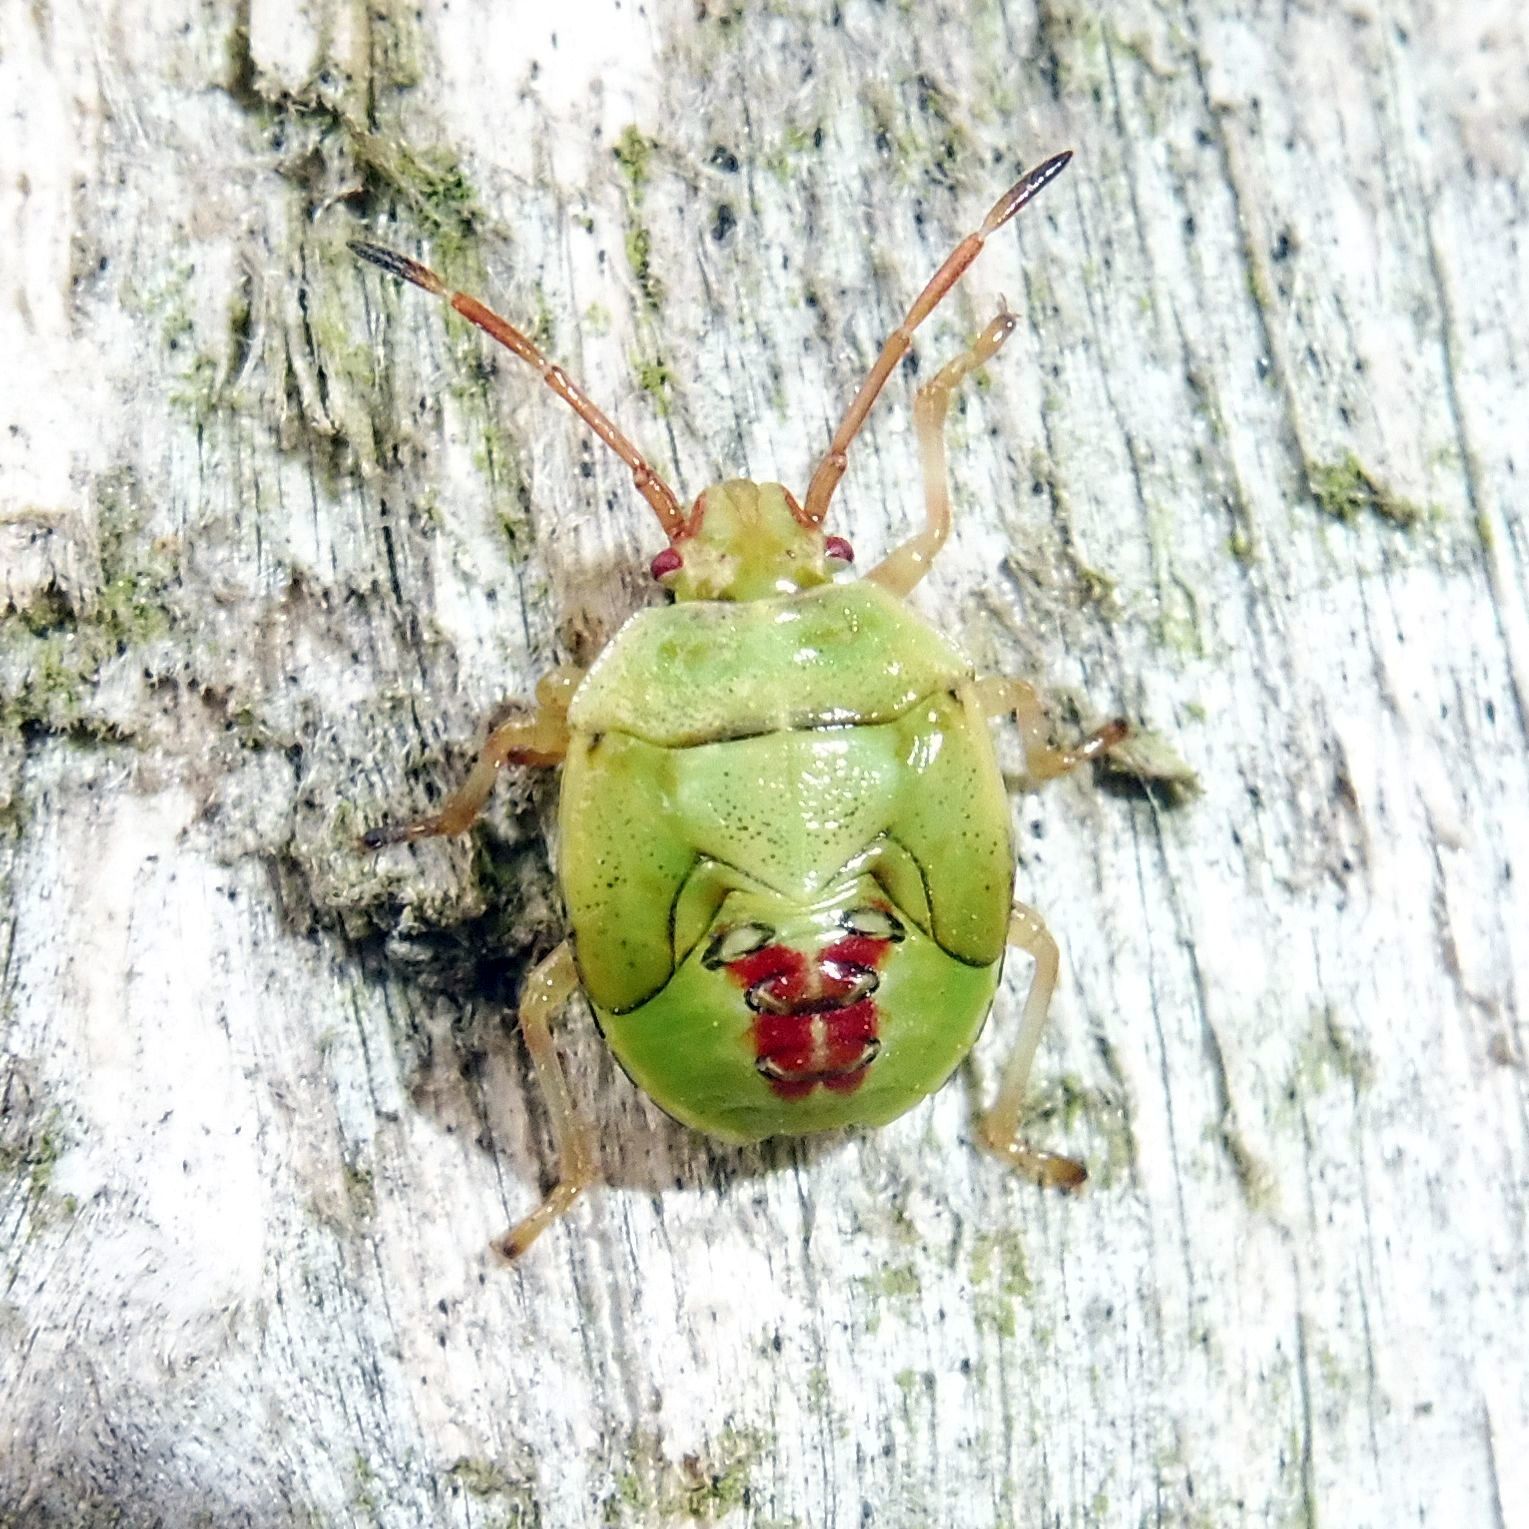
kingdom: Animalia
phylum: Arthropoda
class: Insecta
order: Hemiptera
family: Acanthosomatidae
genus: Elasmostethus
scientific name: Elasmostethus interstinctus
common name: Birch shieldbug
